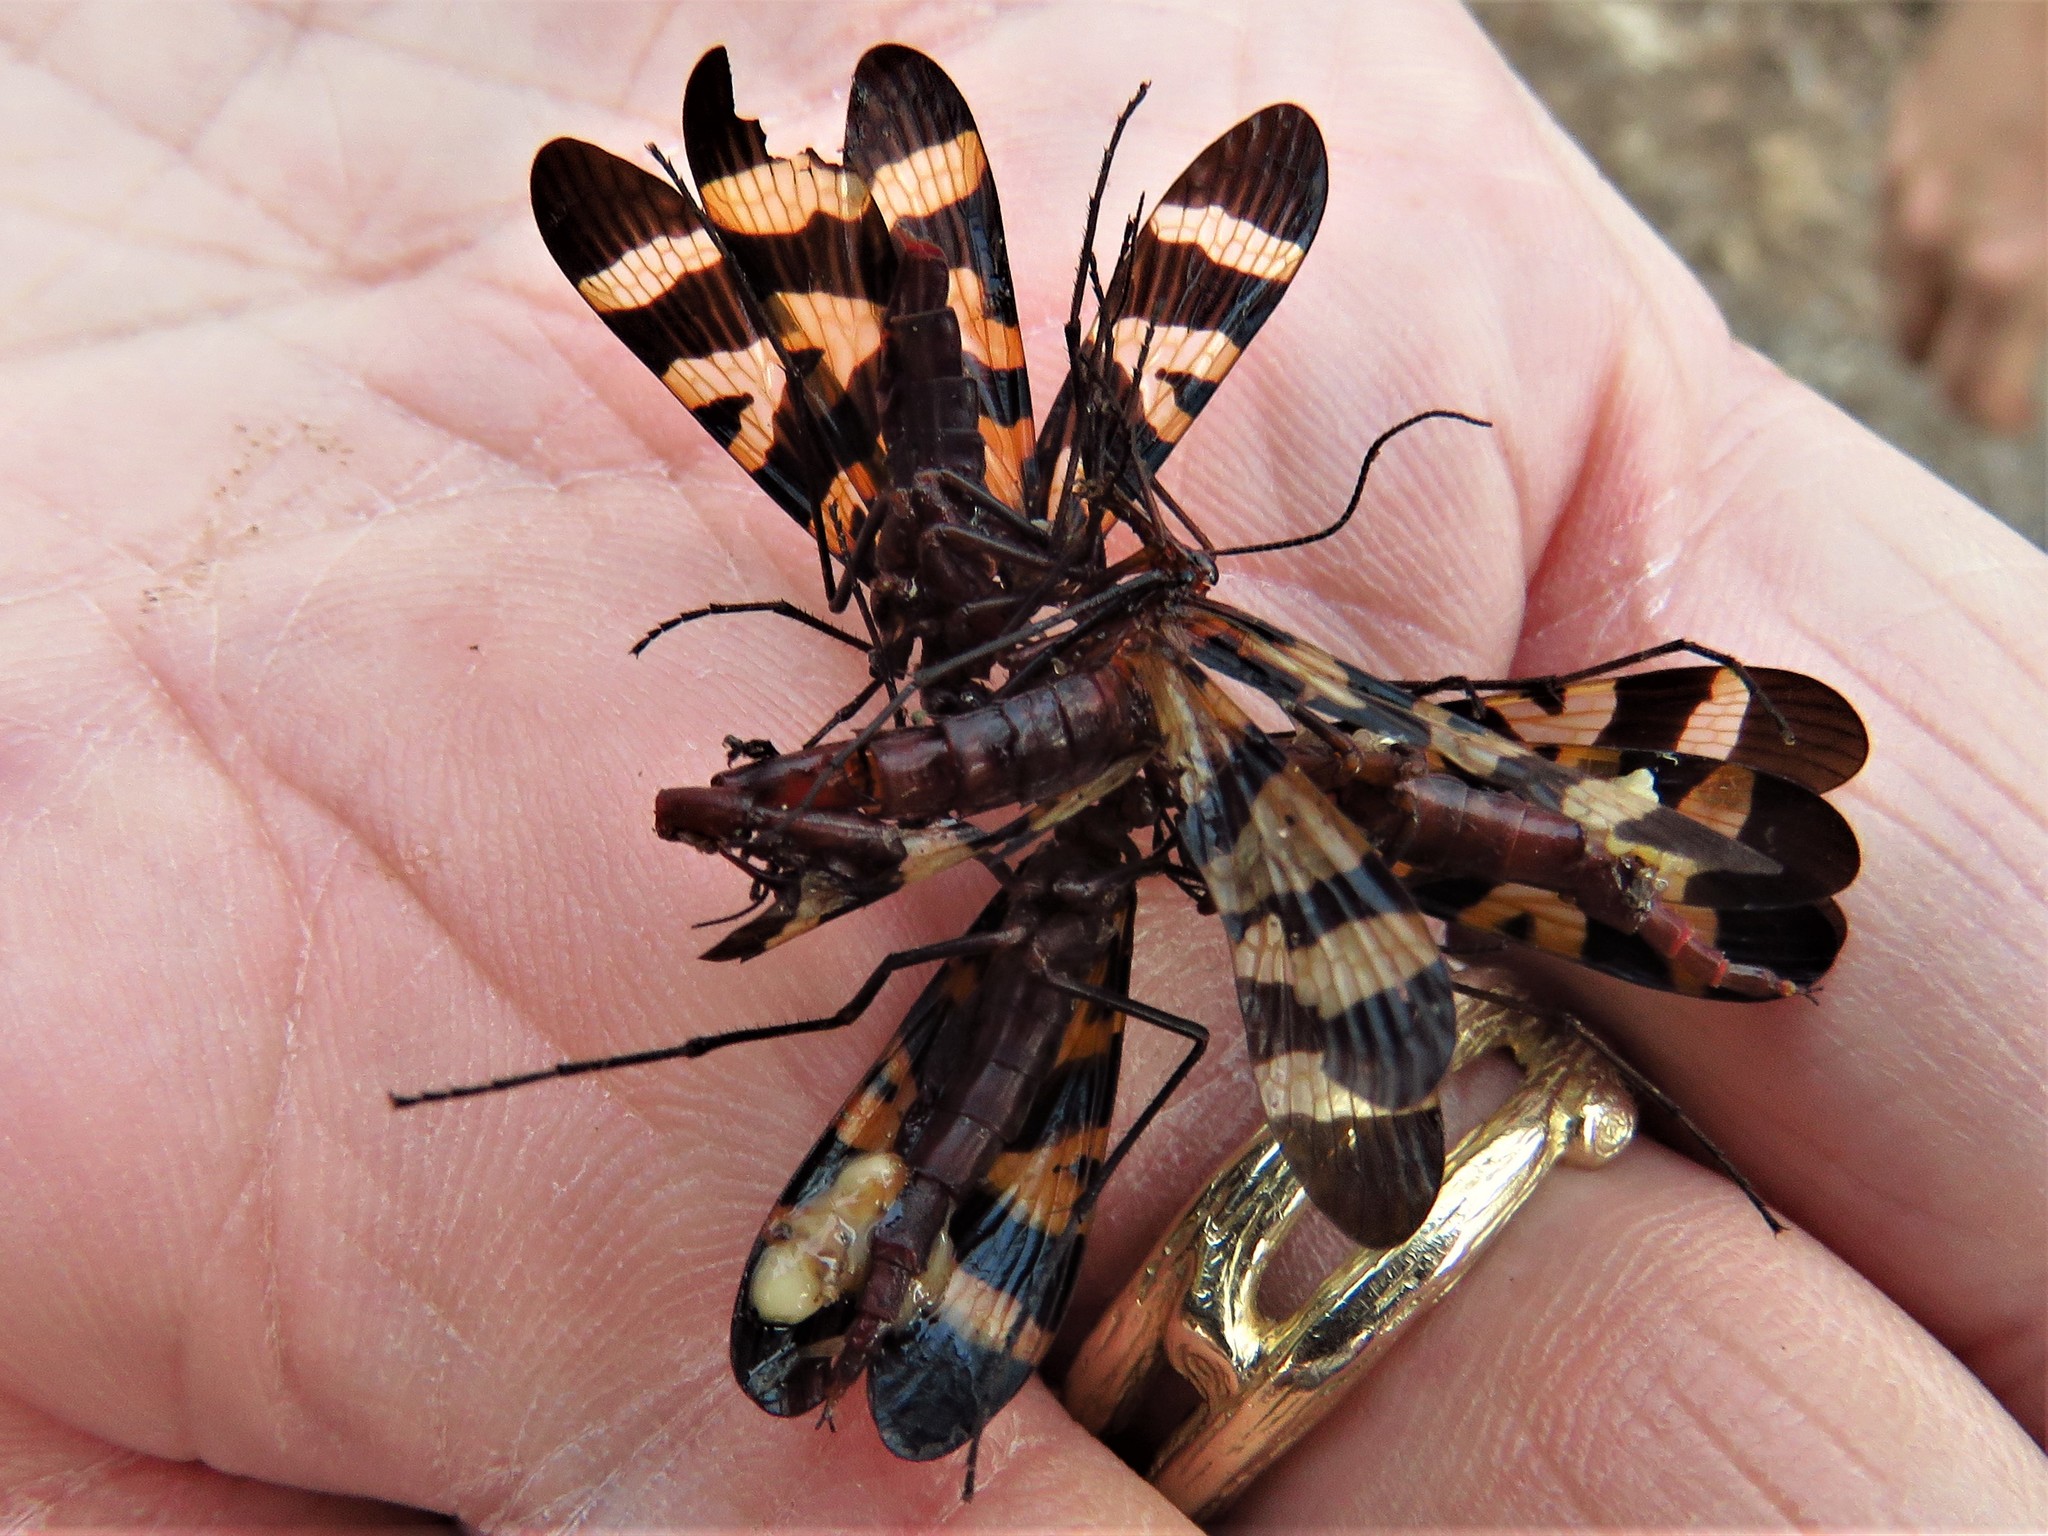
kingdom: Animalia
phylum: Arthropoda
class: Insecta
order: Mecoptera
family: Panorpidae
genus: Panorpa
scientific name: Panorpa nuptialis
